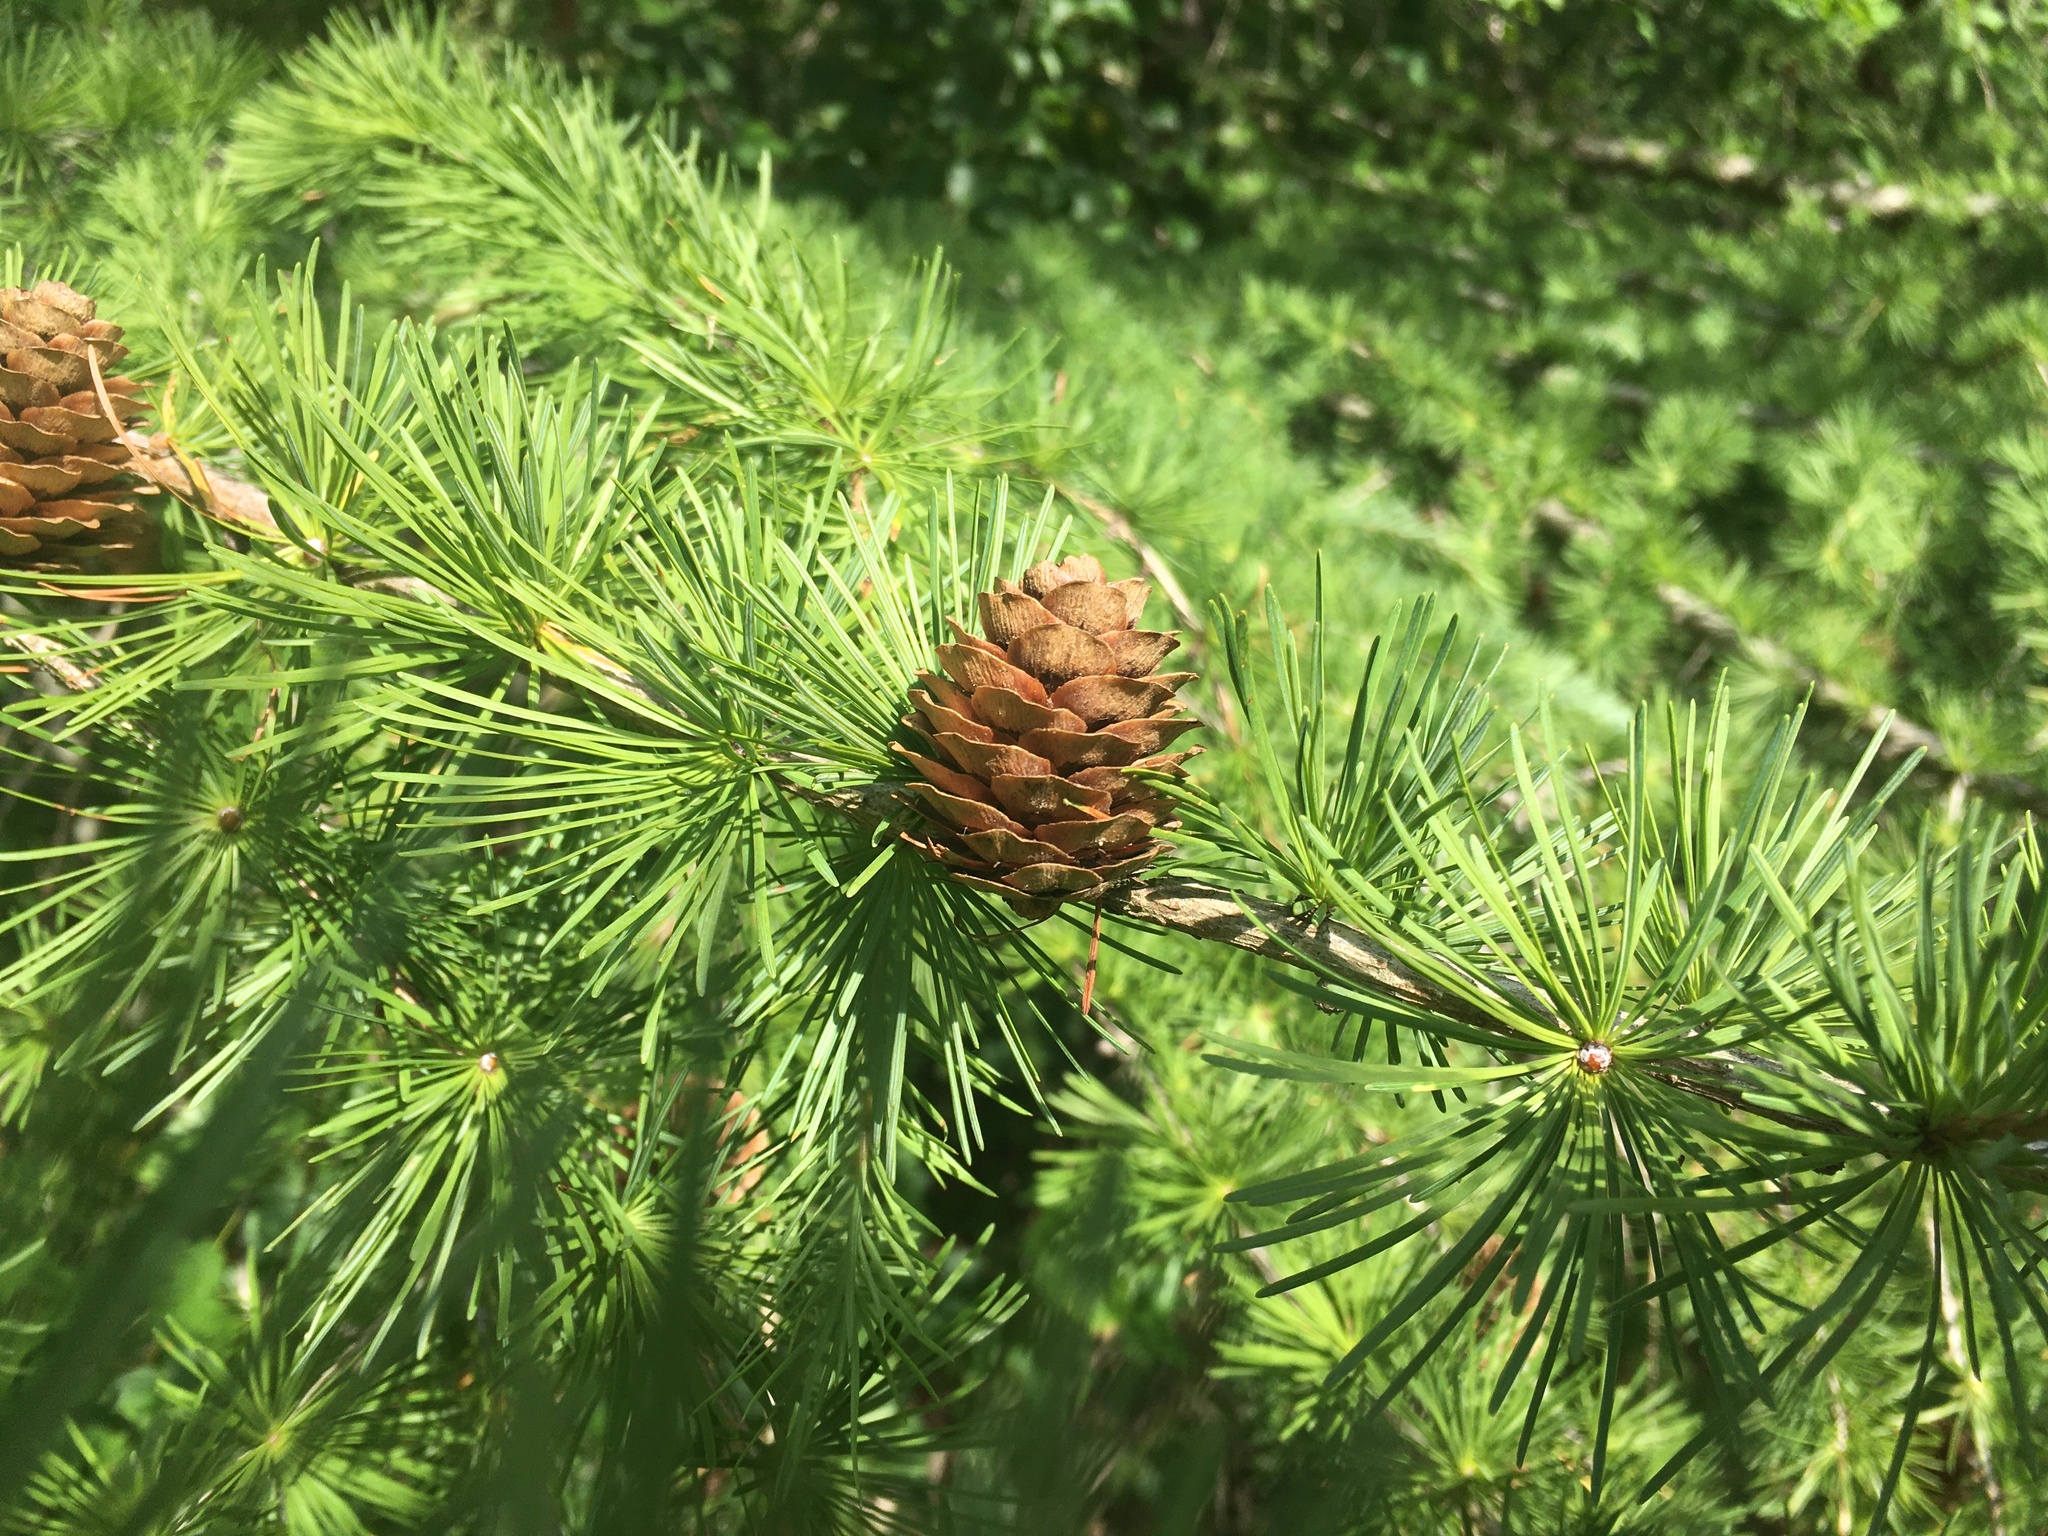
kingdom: Plantae
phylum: Tracheophyta
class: Pinopsida
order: Pinales
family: Pinaceae
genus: Larix
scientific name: Larix decidua
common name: European larch
